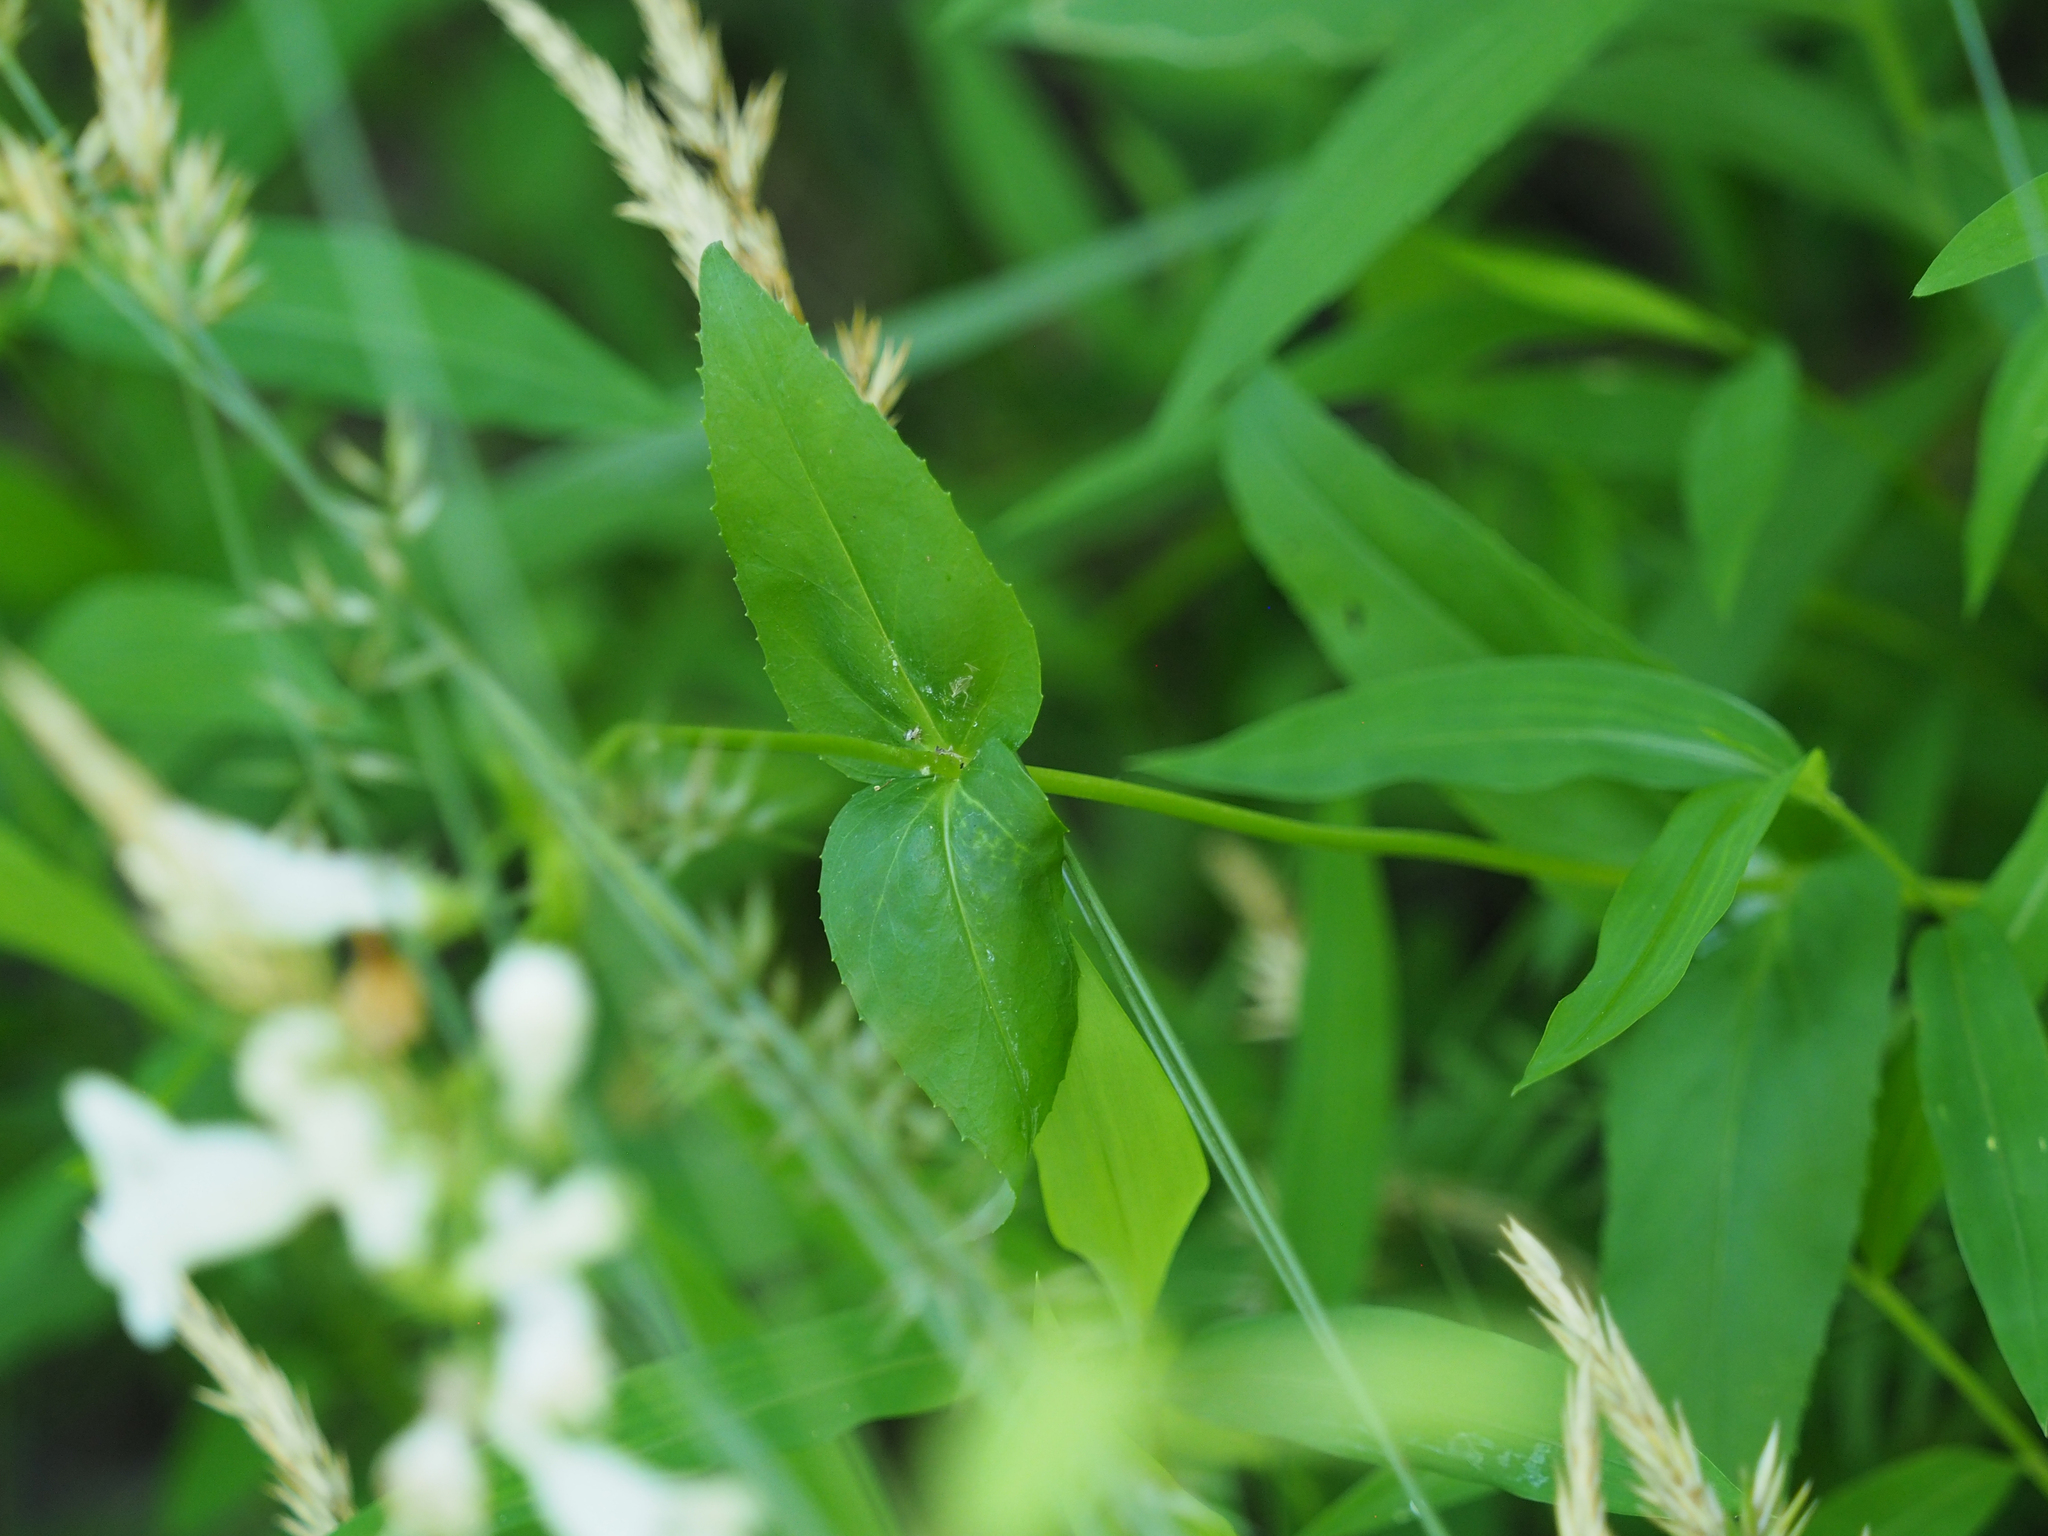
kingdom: Plantae
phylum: Tracheophyta
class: Magnoliopsida
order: Lamiales
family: Plantaginaceae
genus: Penstemon
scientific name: Penstemon digitalis
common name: Foxglove beardtongue
